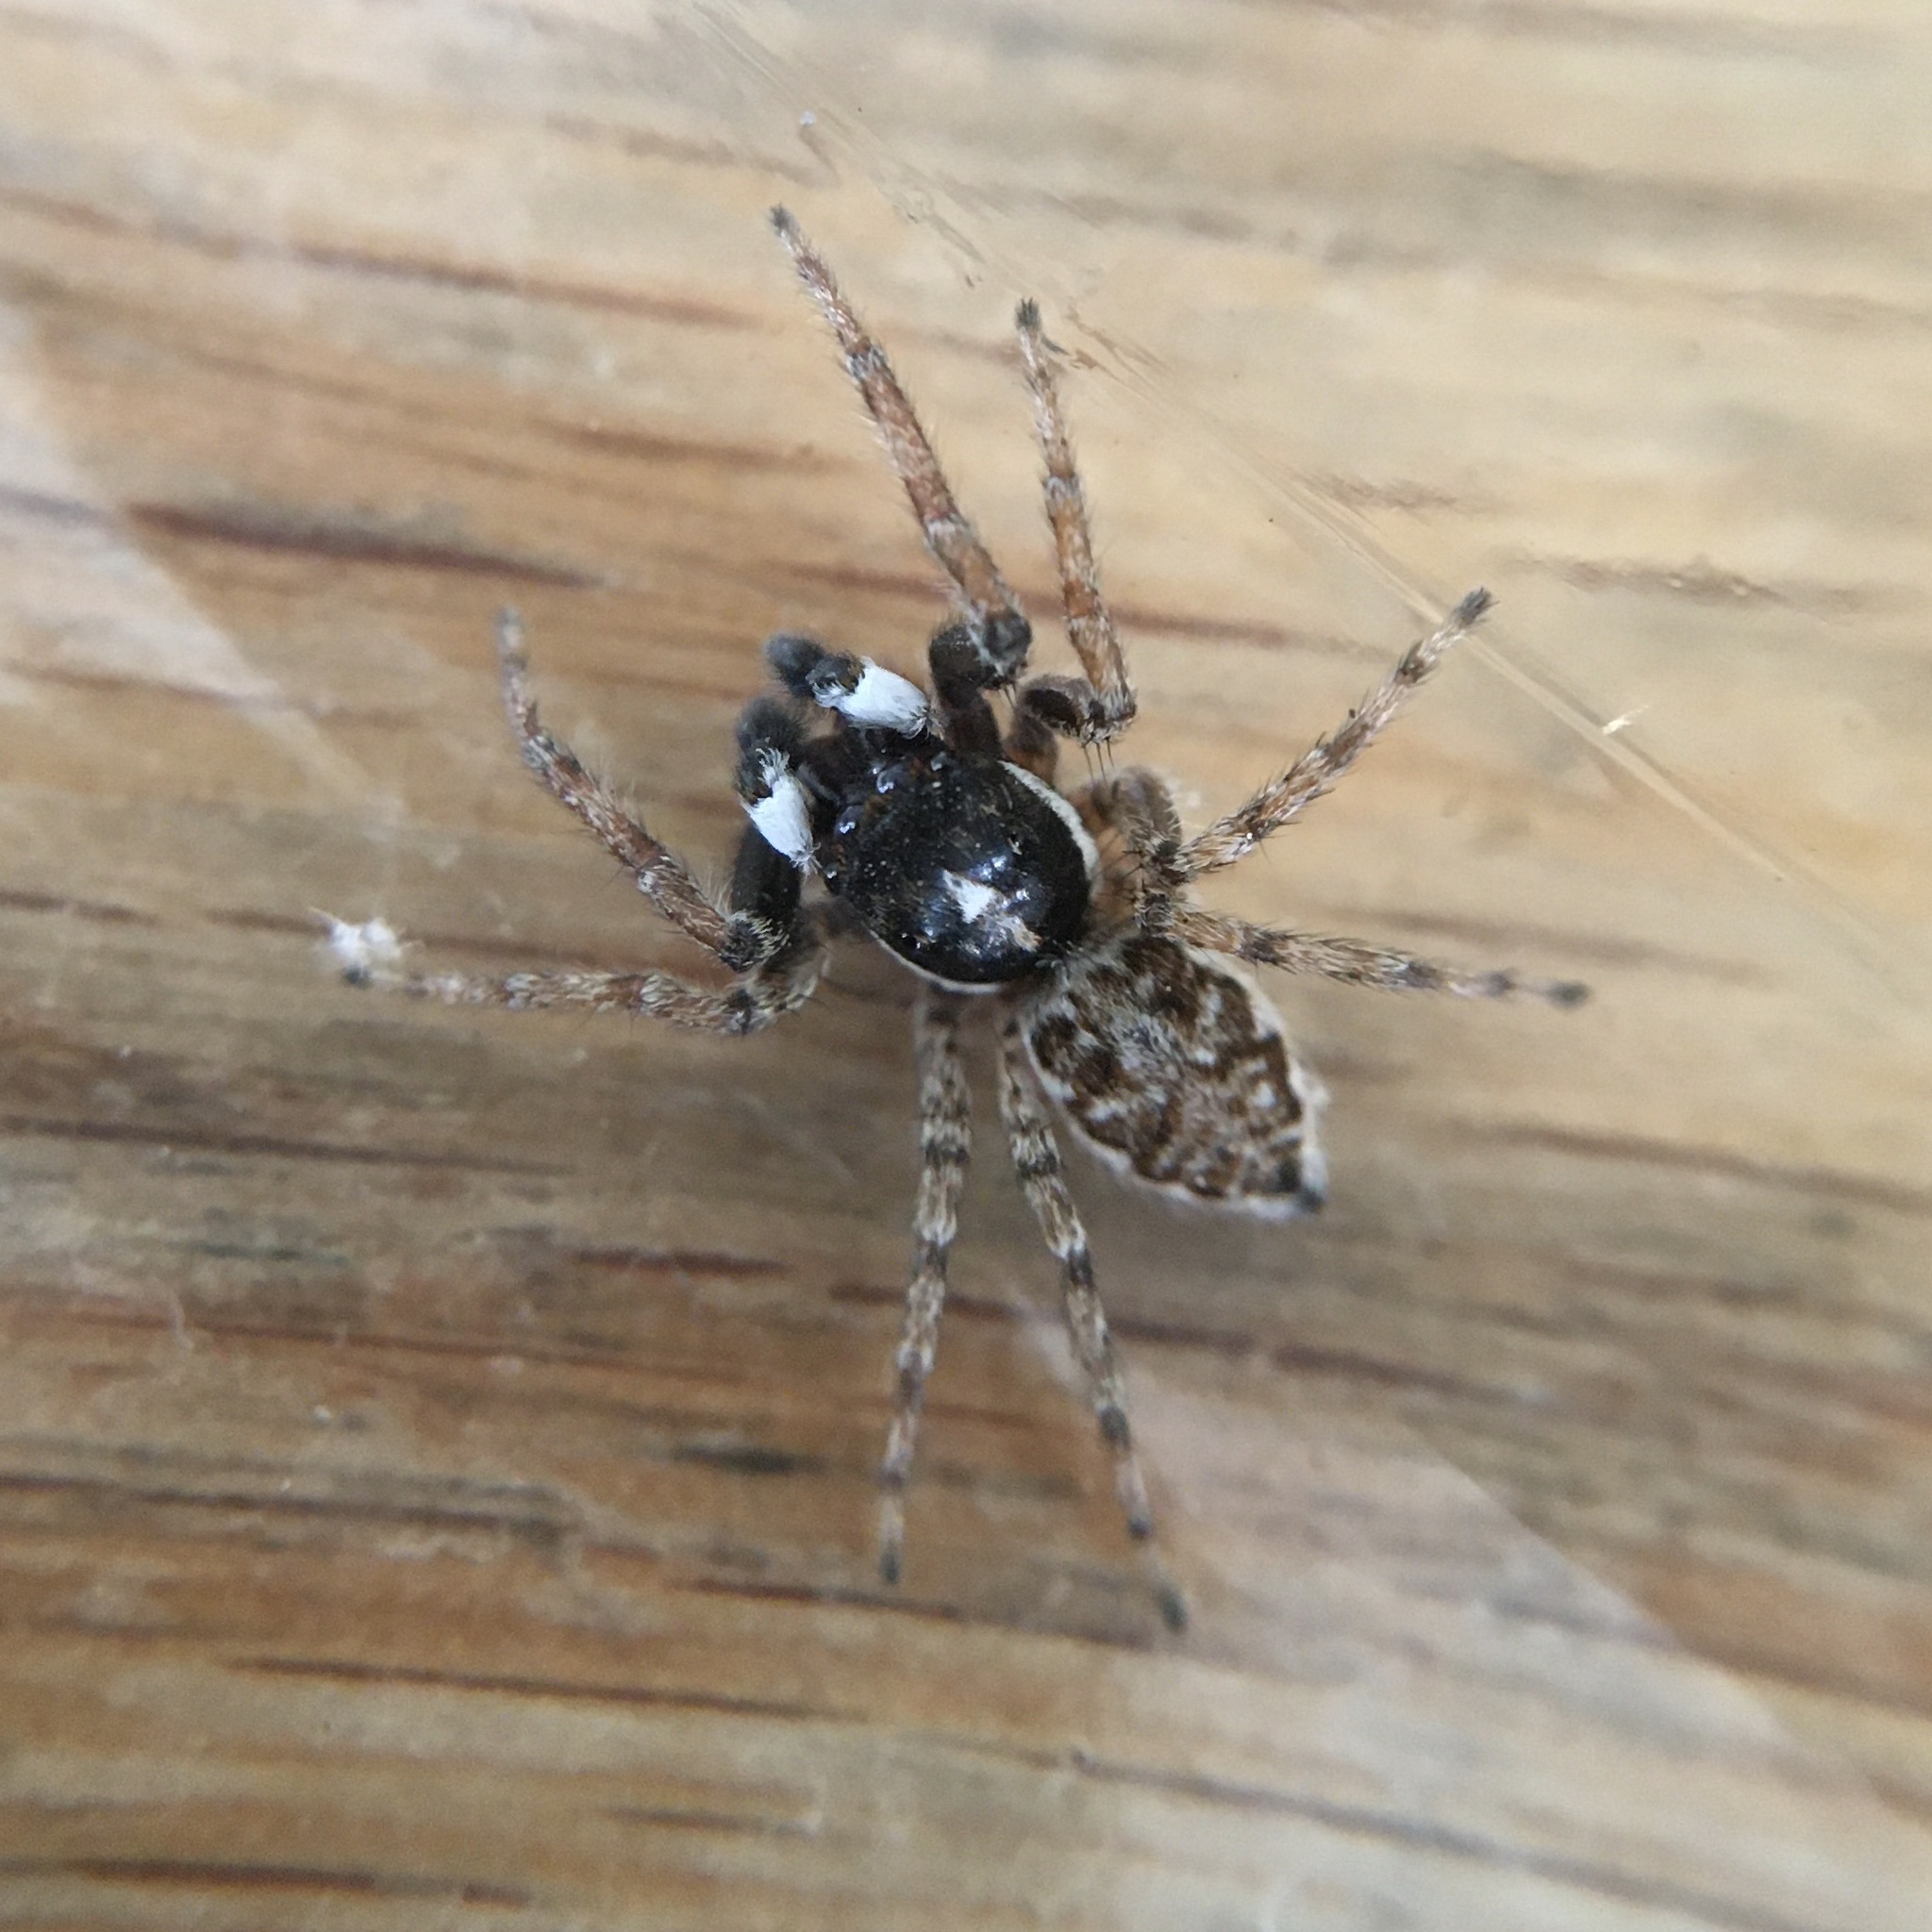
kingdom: Animalia
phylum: Arthropoda
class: Arachnida
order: Araneae
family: Salticidae
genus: Menemerus
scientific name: Menemerus semilimbatus
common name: Jumping spider
